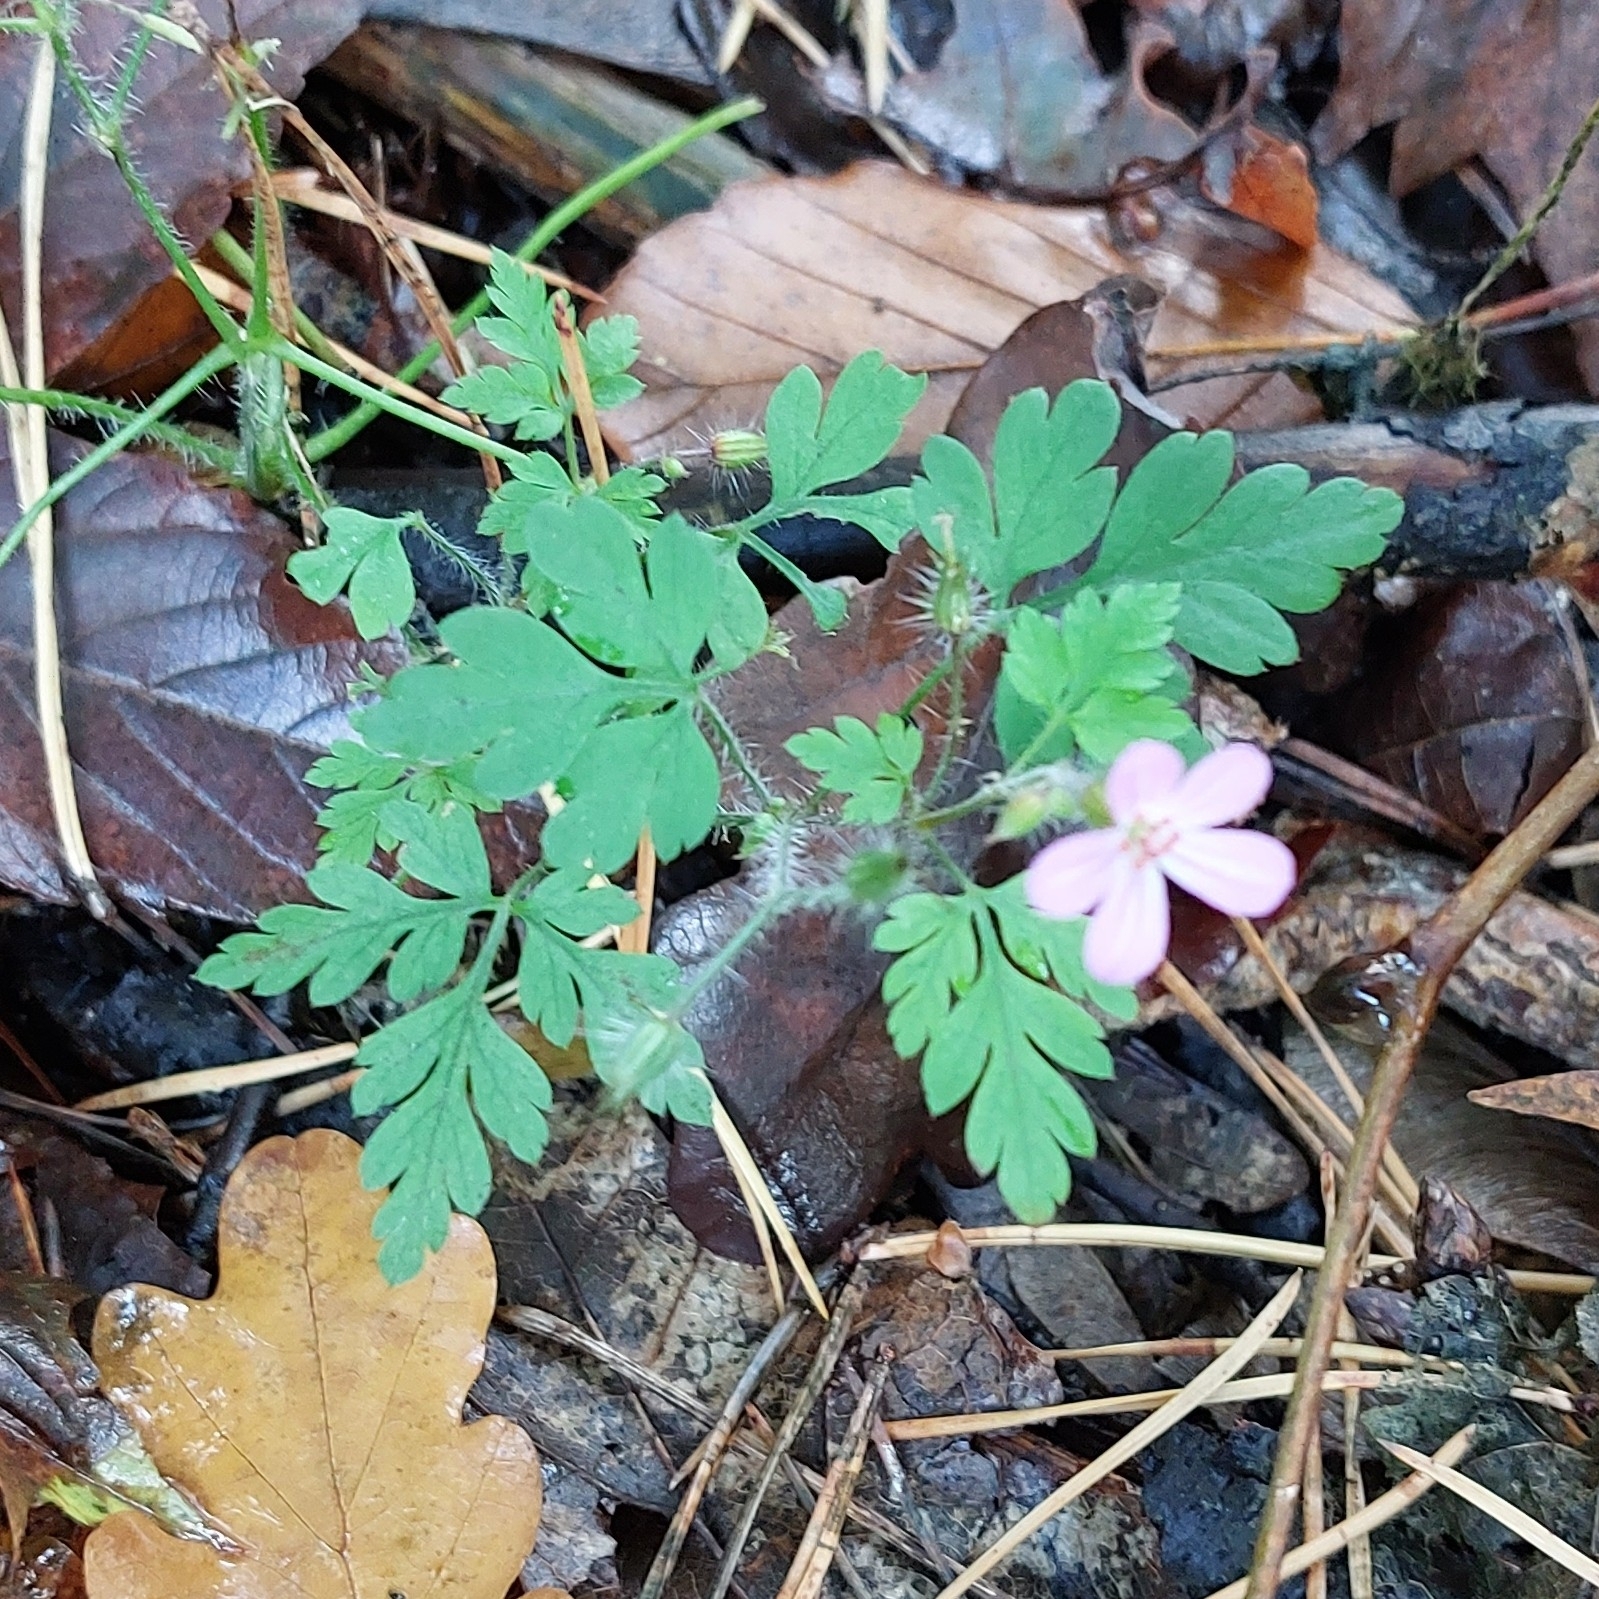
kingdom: Plantae
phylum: Tracheophyta
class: Magnoliopsida
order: Geraniales
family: Geraniaceae
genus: Geranium
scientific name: Geranium robertianum
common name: Herb-robert
